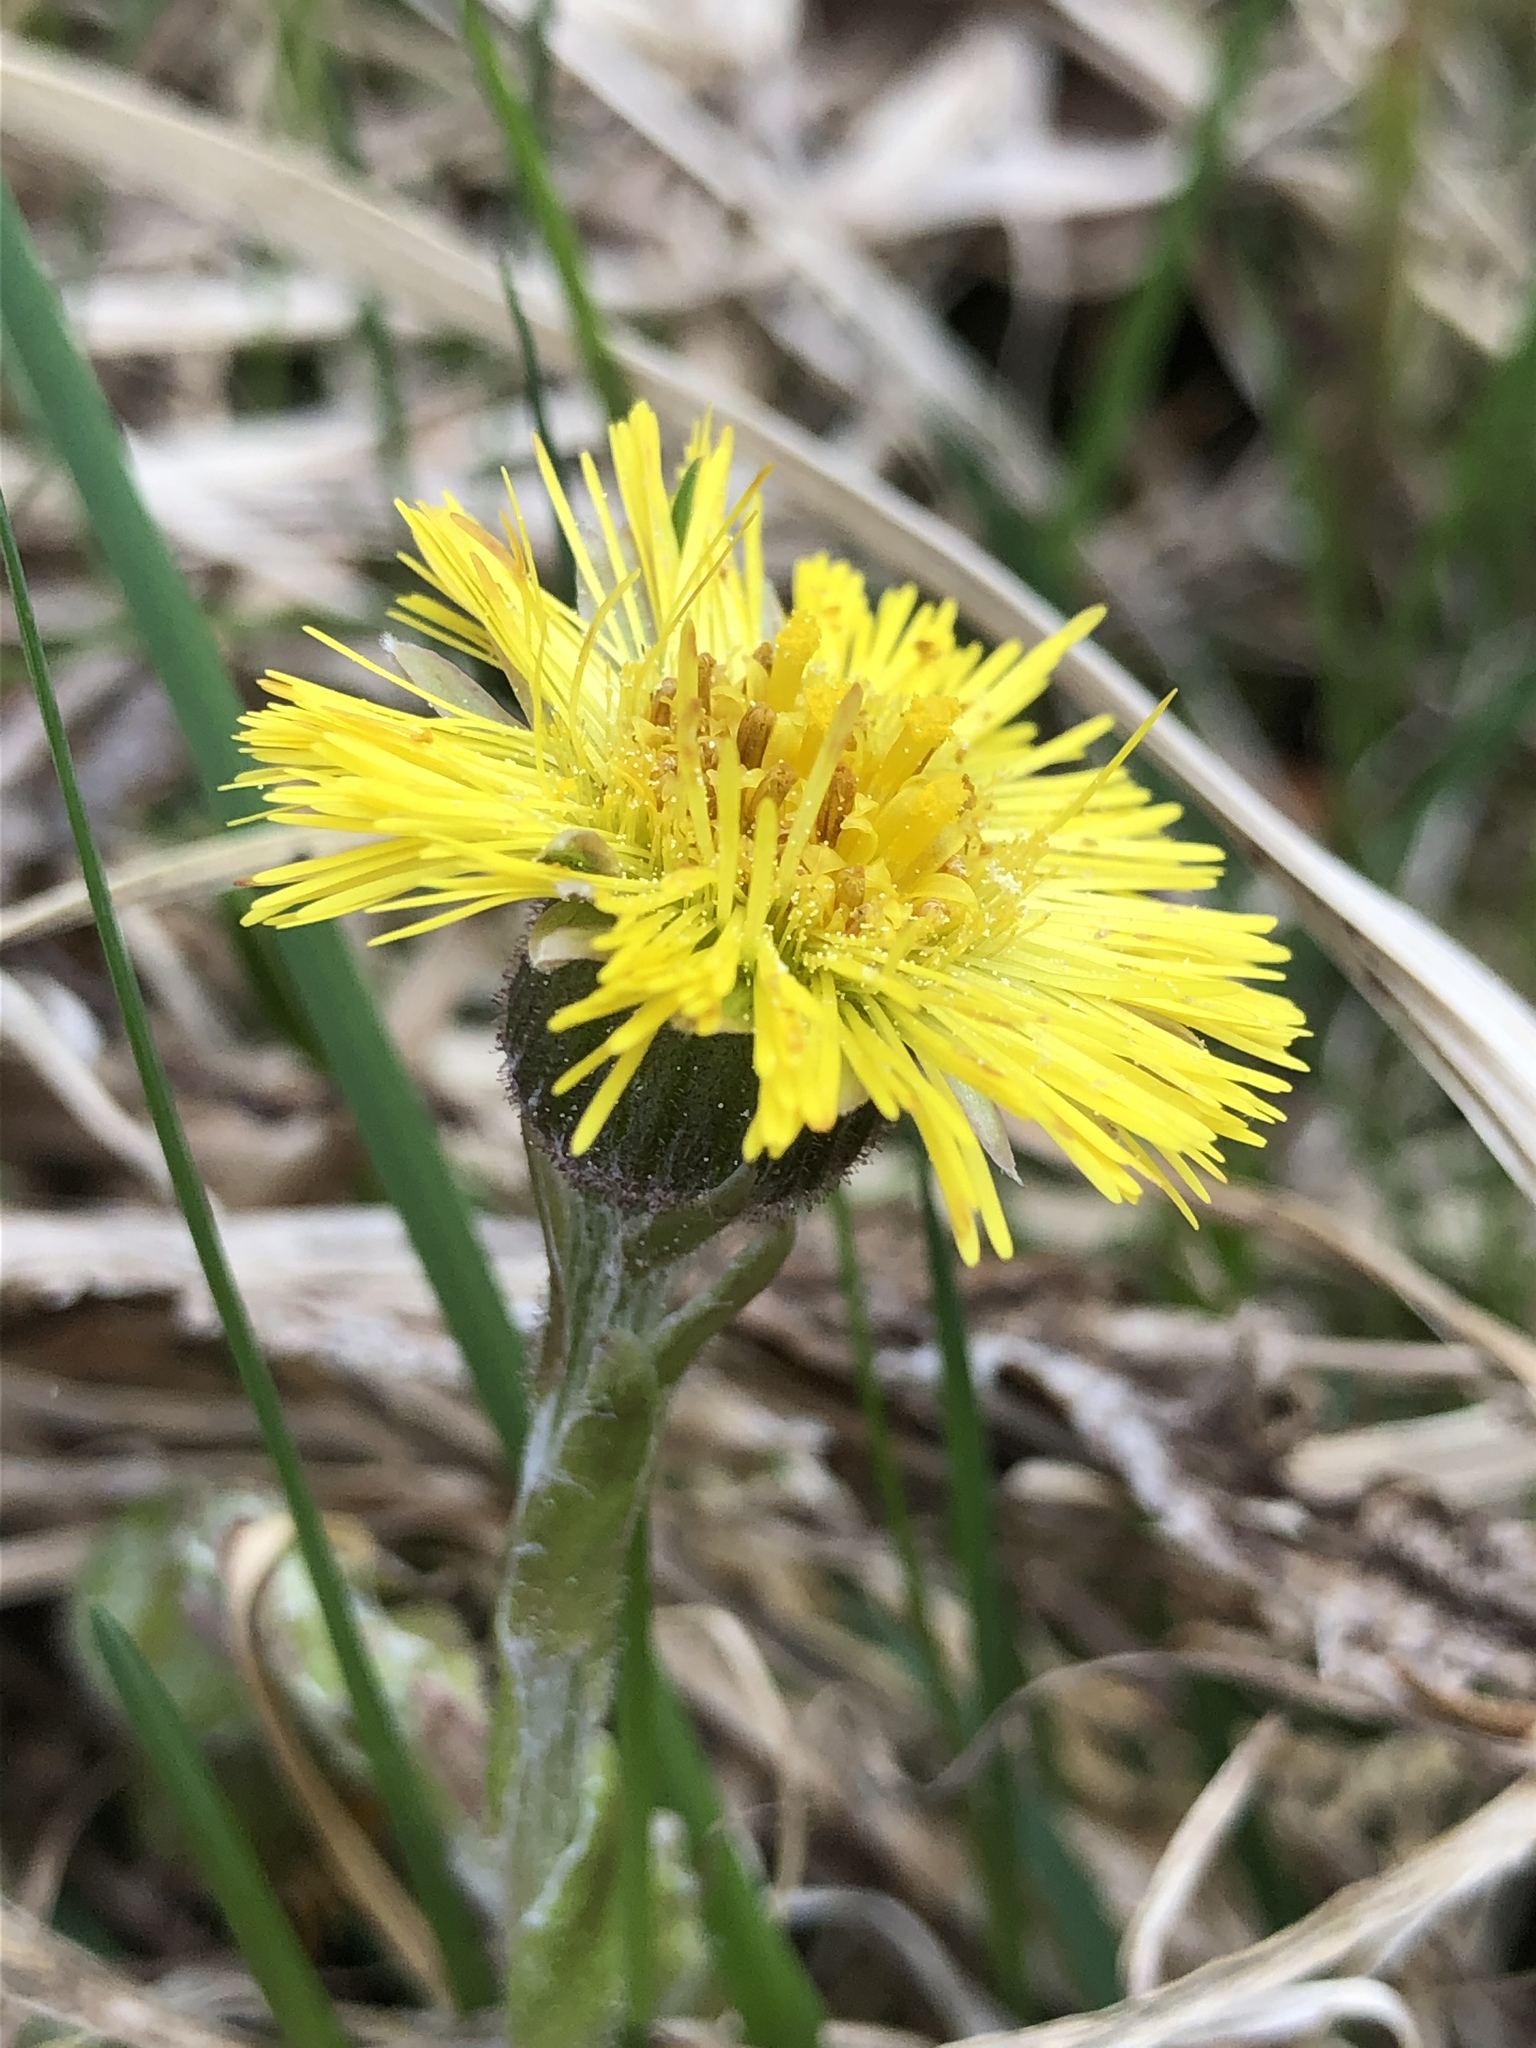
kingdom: Plantae
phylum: Tracheophyta
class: Magnoliopsida
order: Asterales
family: Asteraceae
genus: Tussilago
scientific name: Tussilago farfara
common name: Coltsfoot
